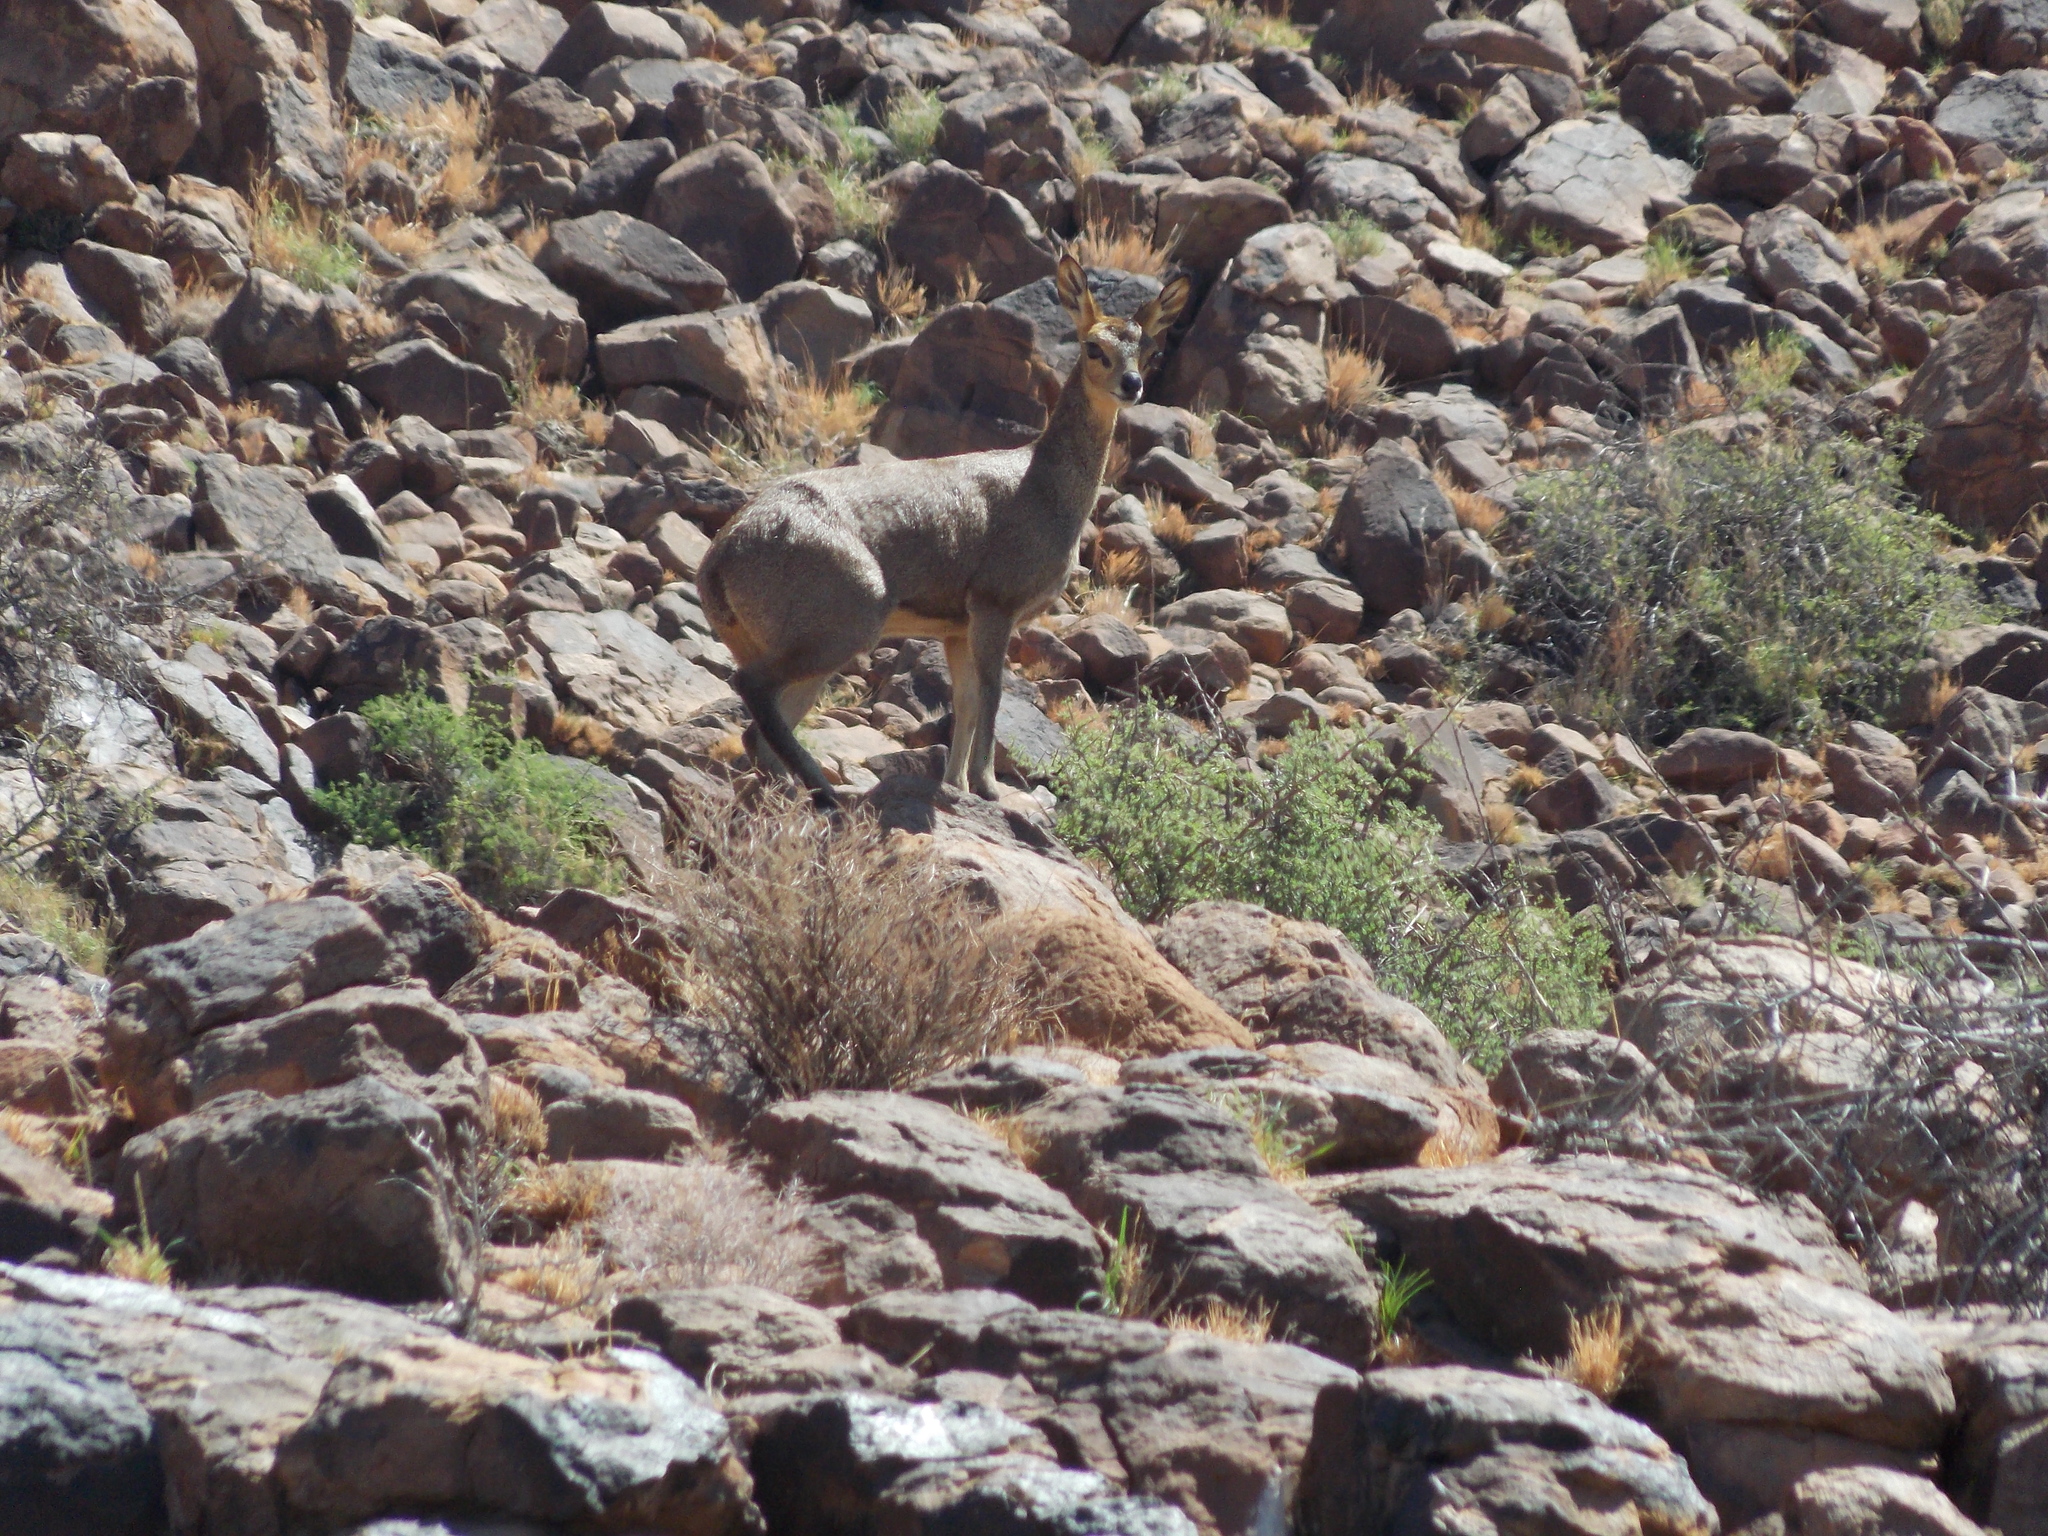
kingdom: Animalia
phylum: Chordata
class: Mammalia
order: Artiodactyla
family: Bovidae
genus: Oreotragus
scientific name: Oreotragus oreotragus
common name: Klipspringer
